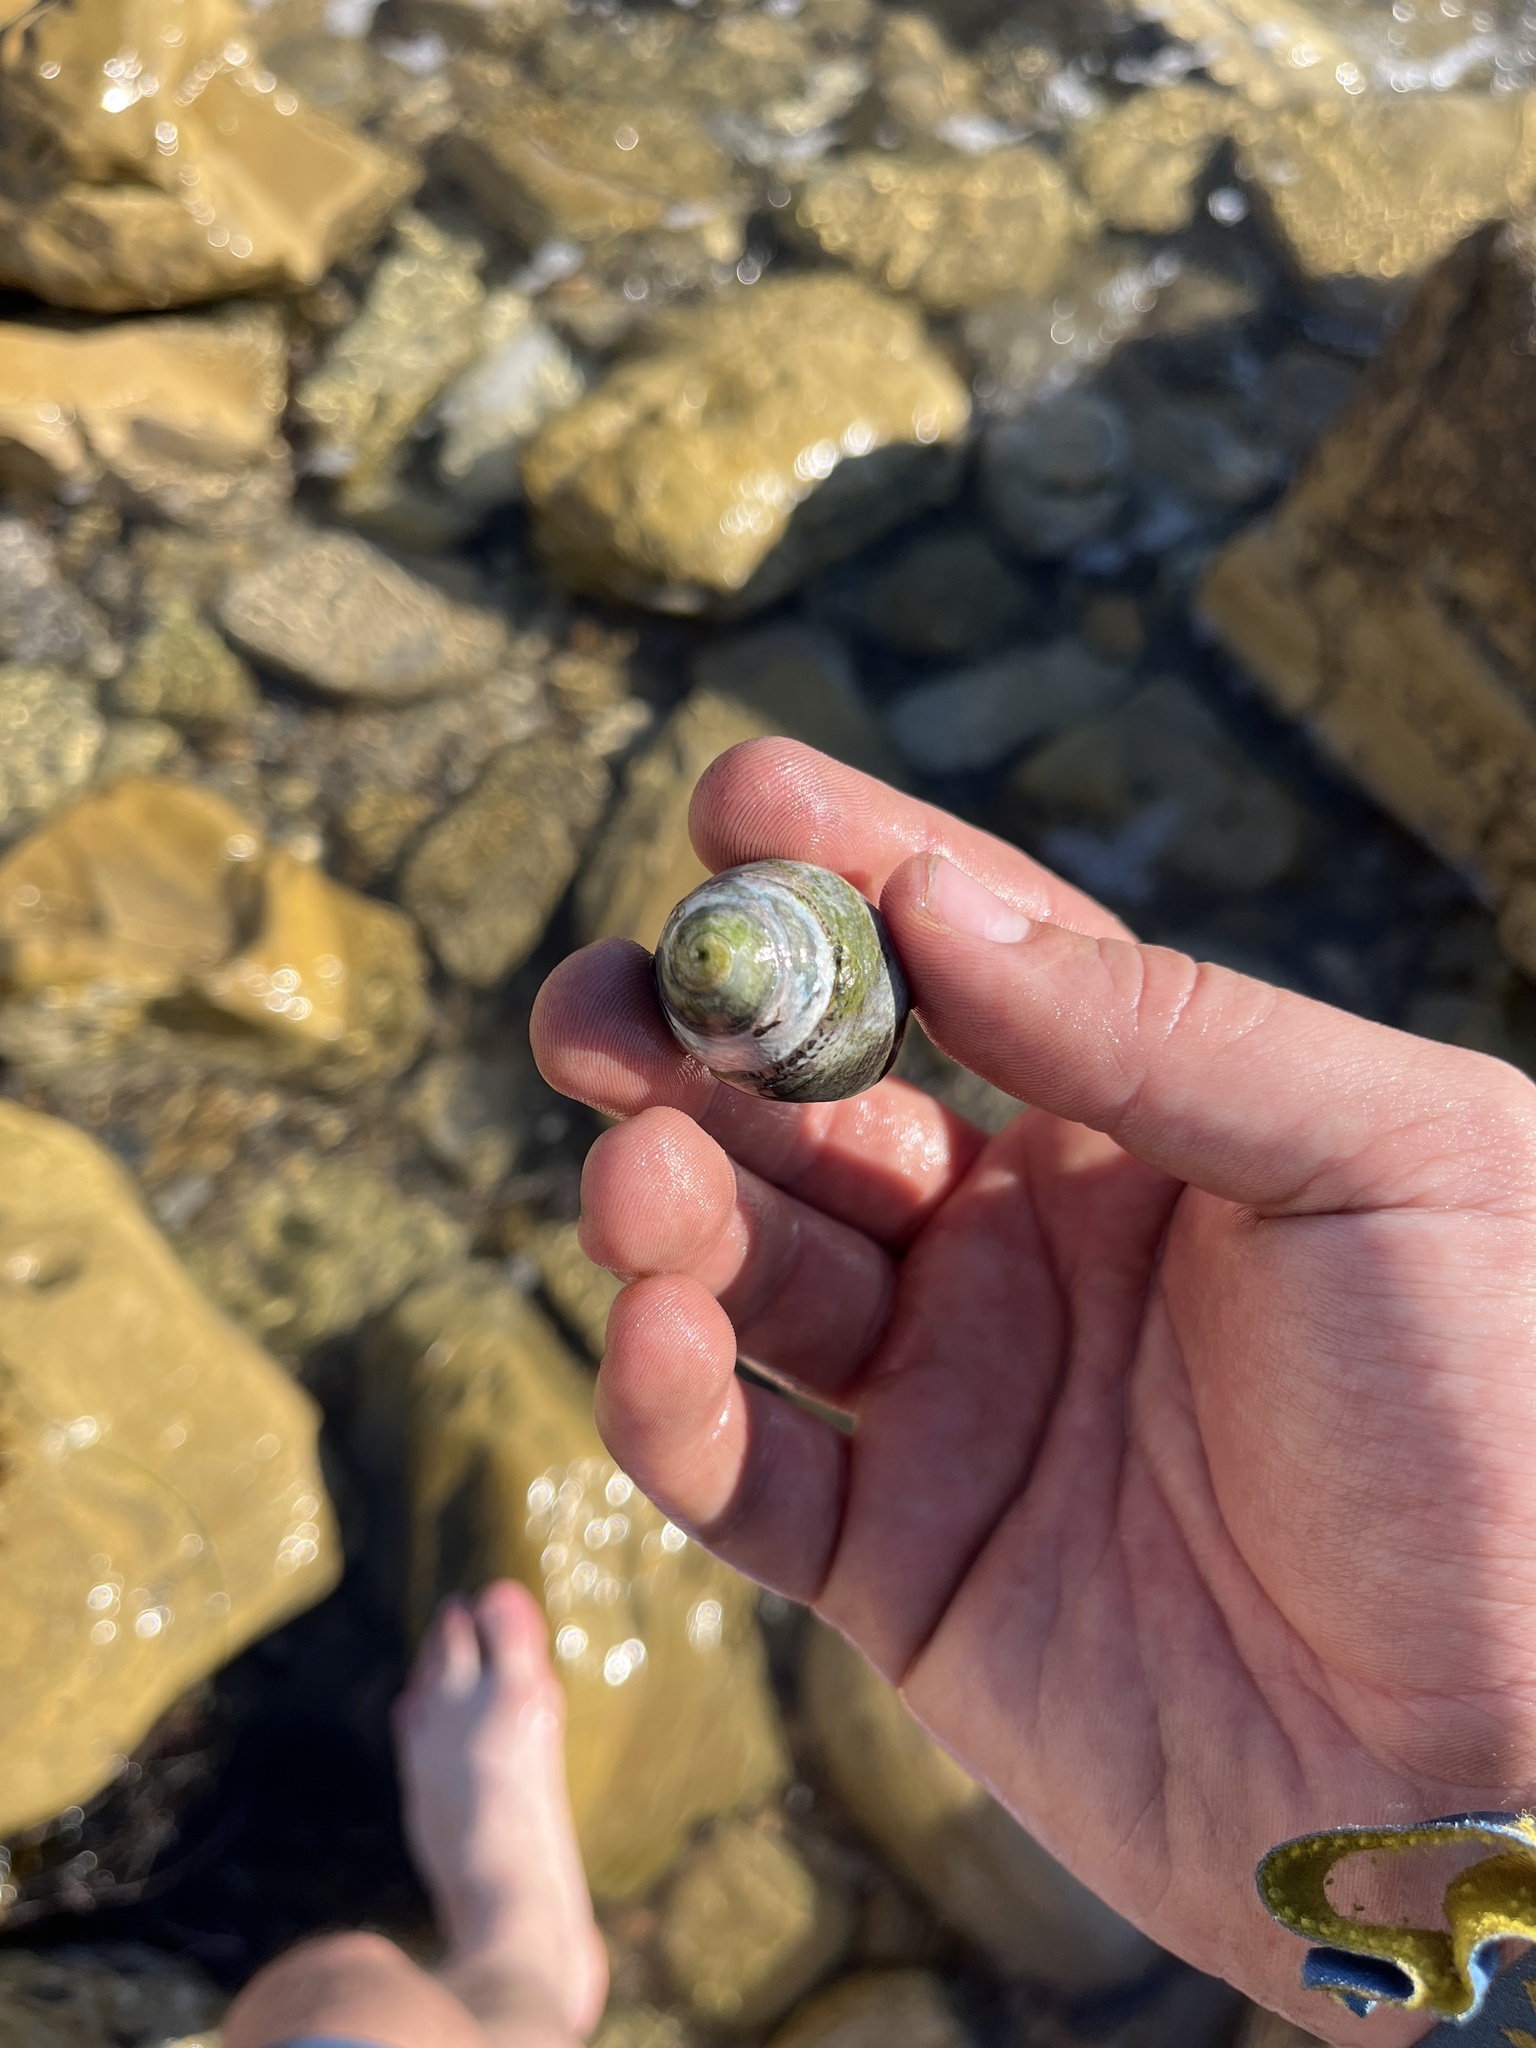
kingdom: Animalia
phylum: Mollusca
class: Gastropoda
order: Trochida
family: Tegulidae
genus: Tegula
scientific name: Tegula gallina
